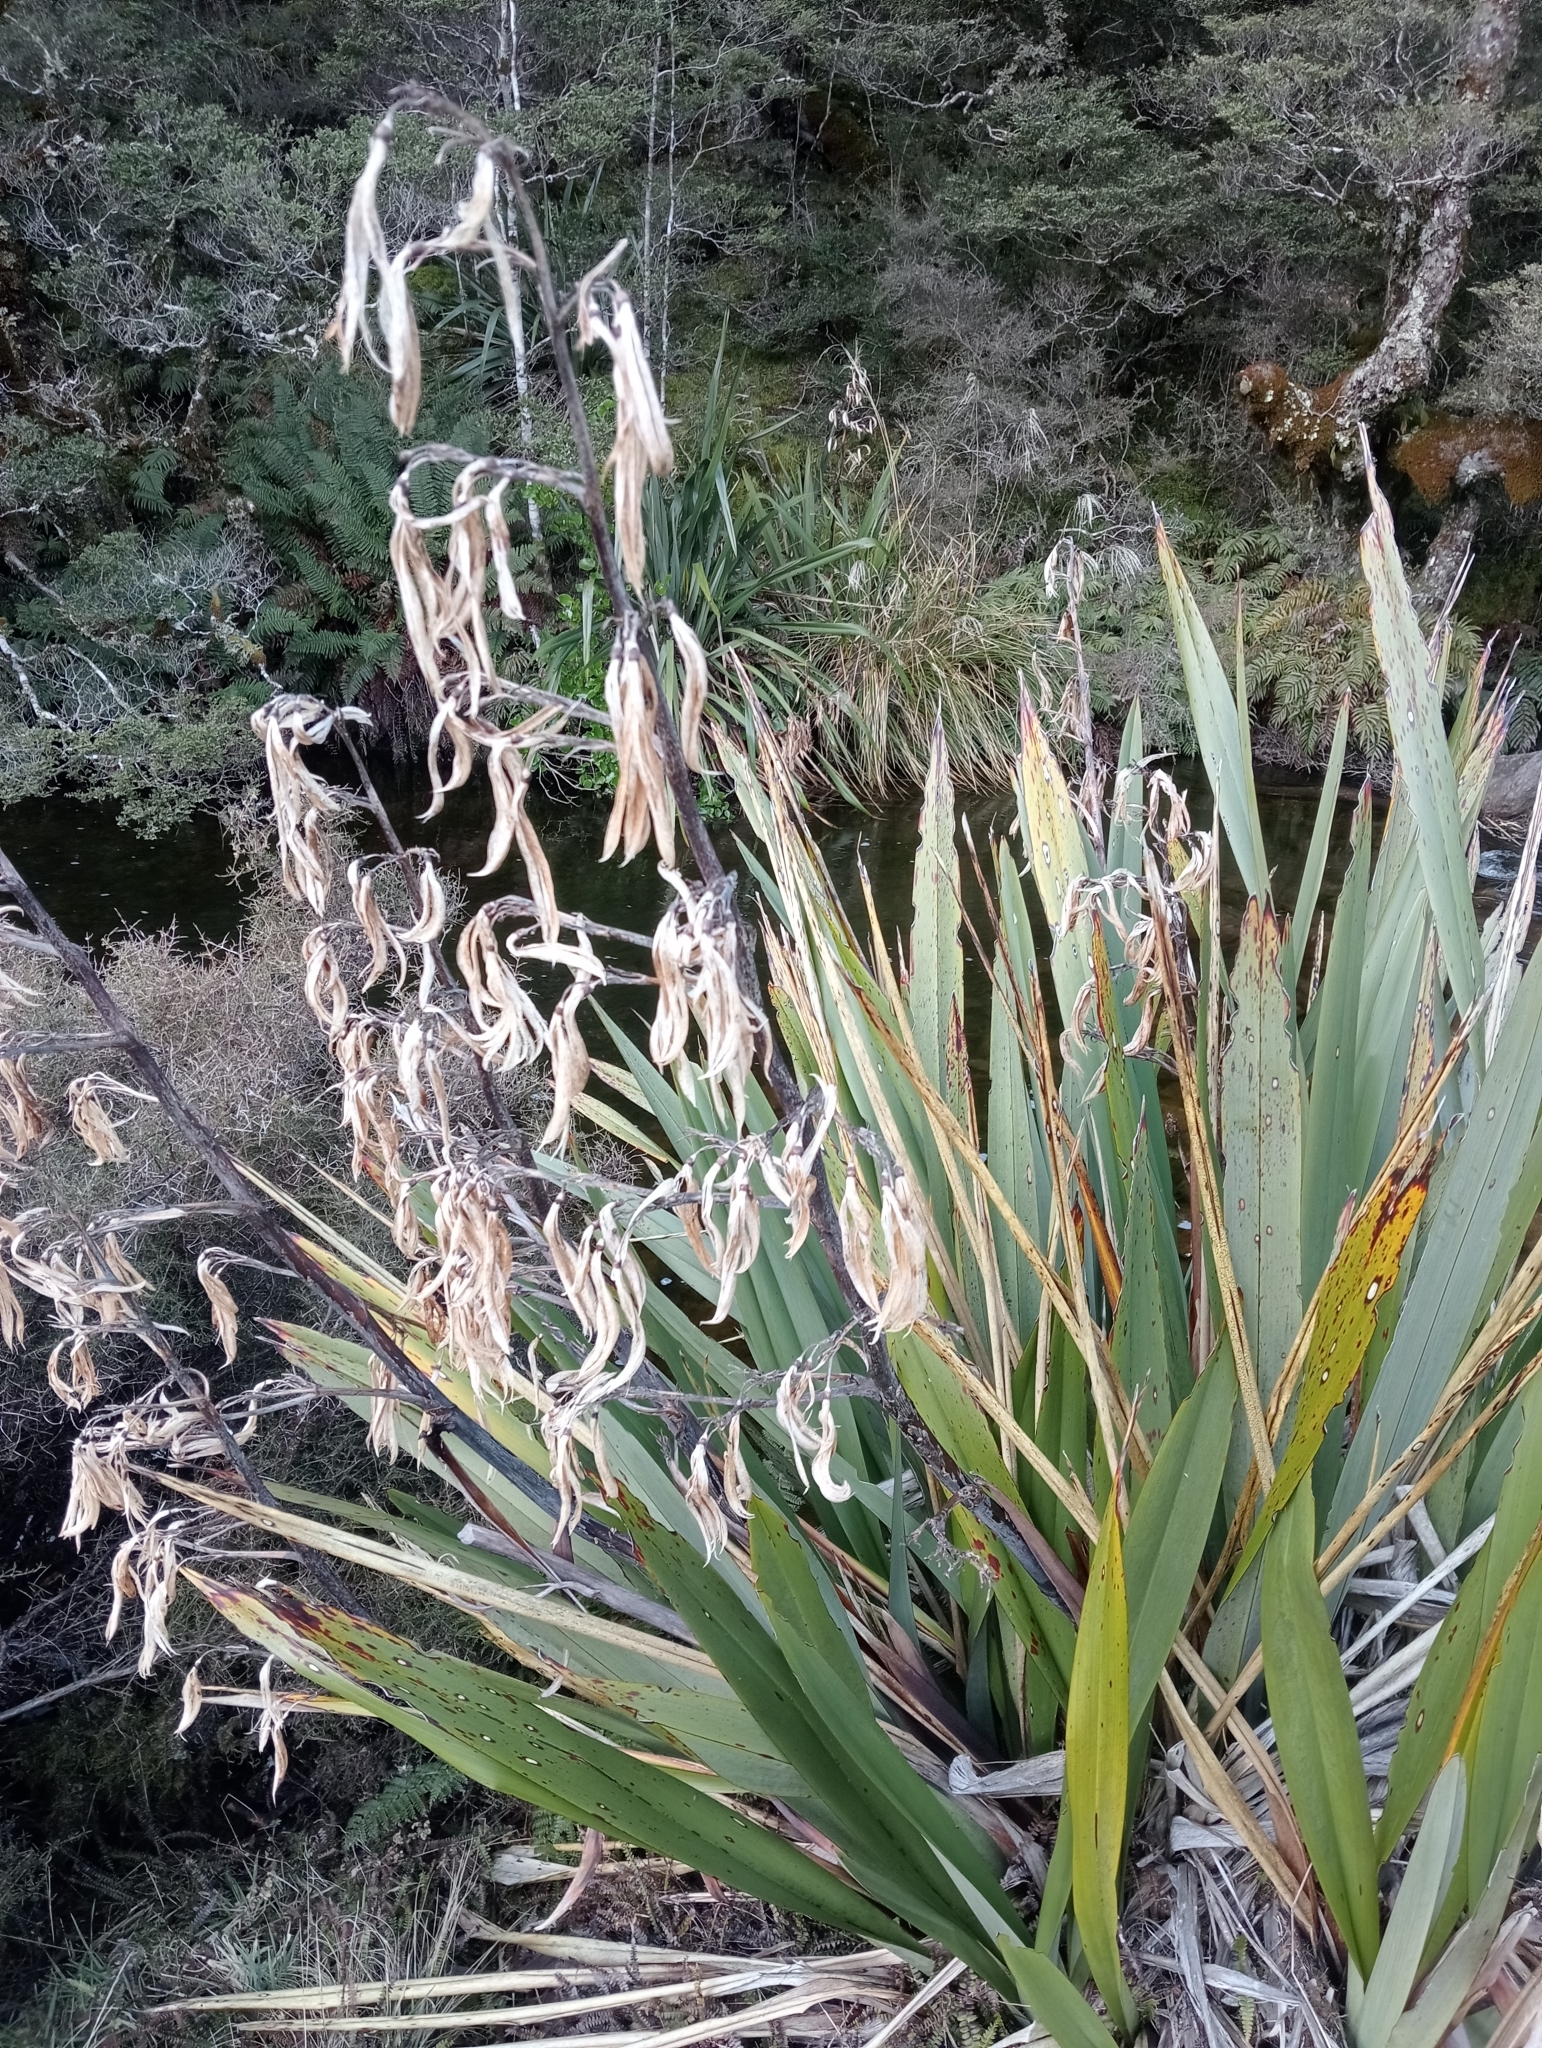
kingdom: Plantae
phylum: Tracheophyta
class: Liliopsida
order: Asparagales
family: Asphodelaceae
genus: Phormium
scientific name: Phormium colensoi
